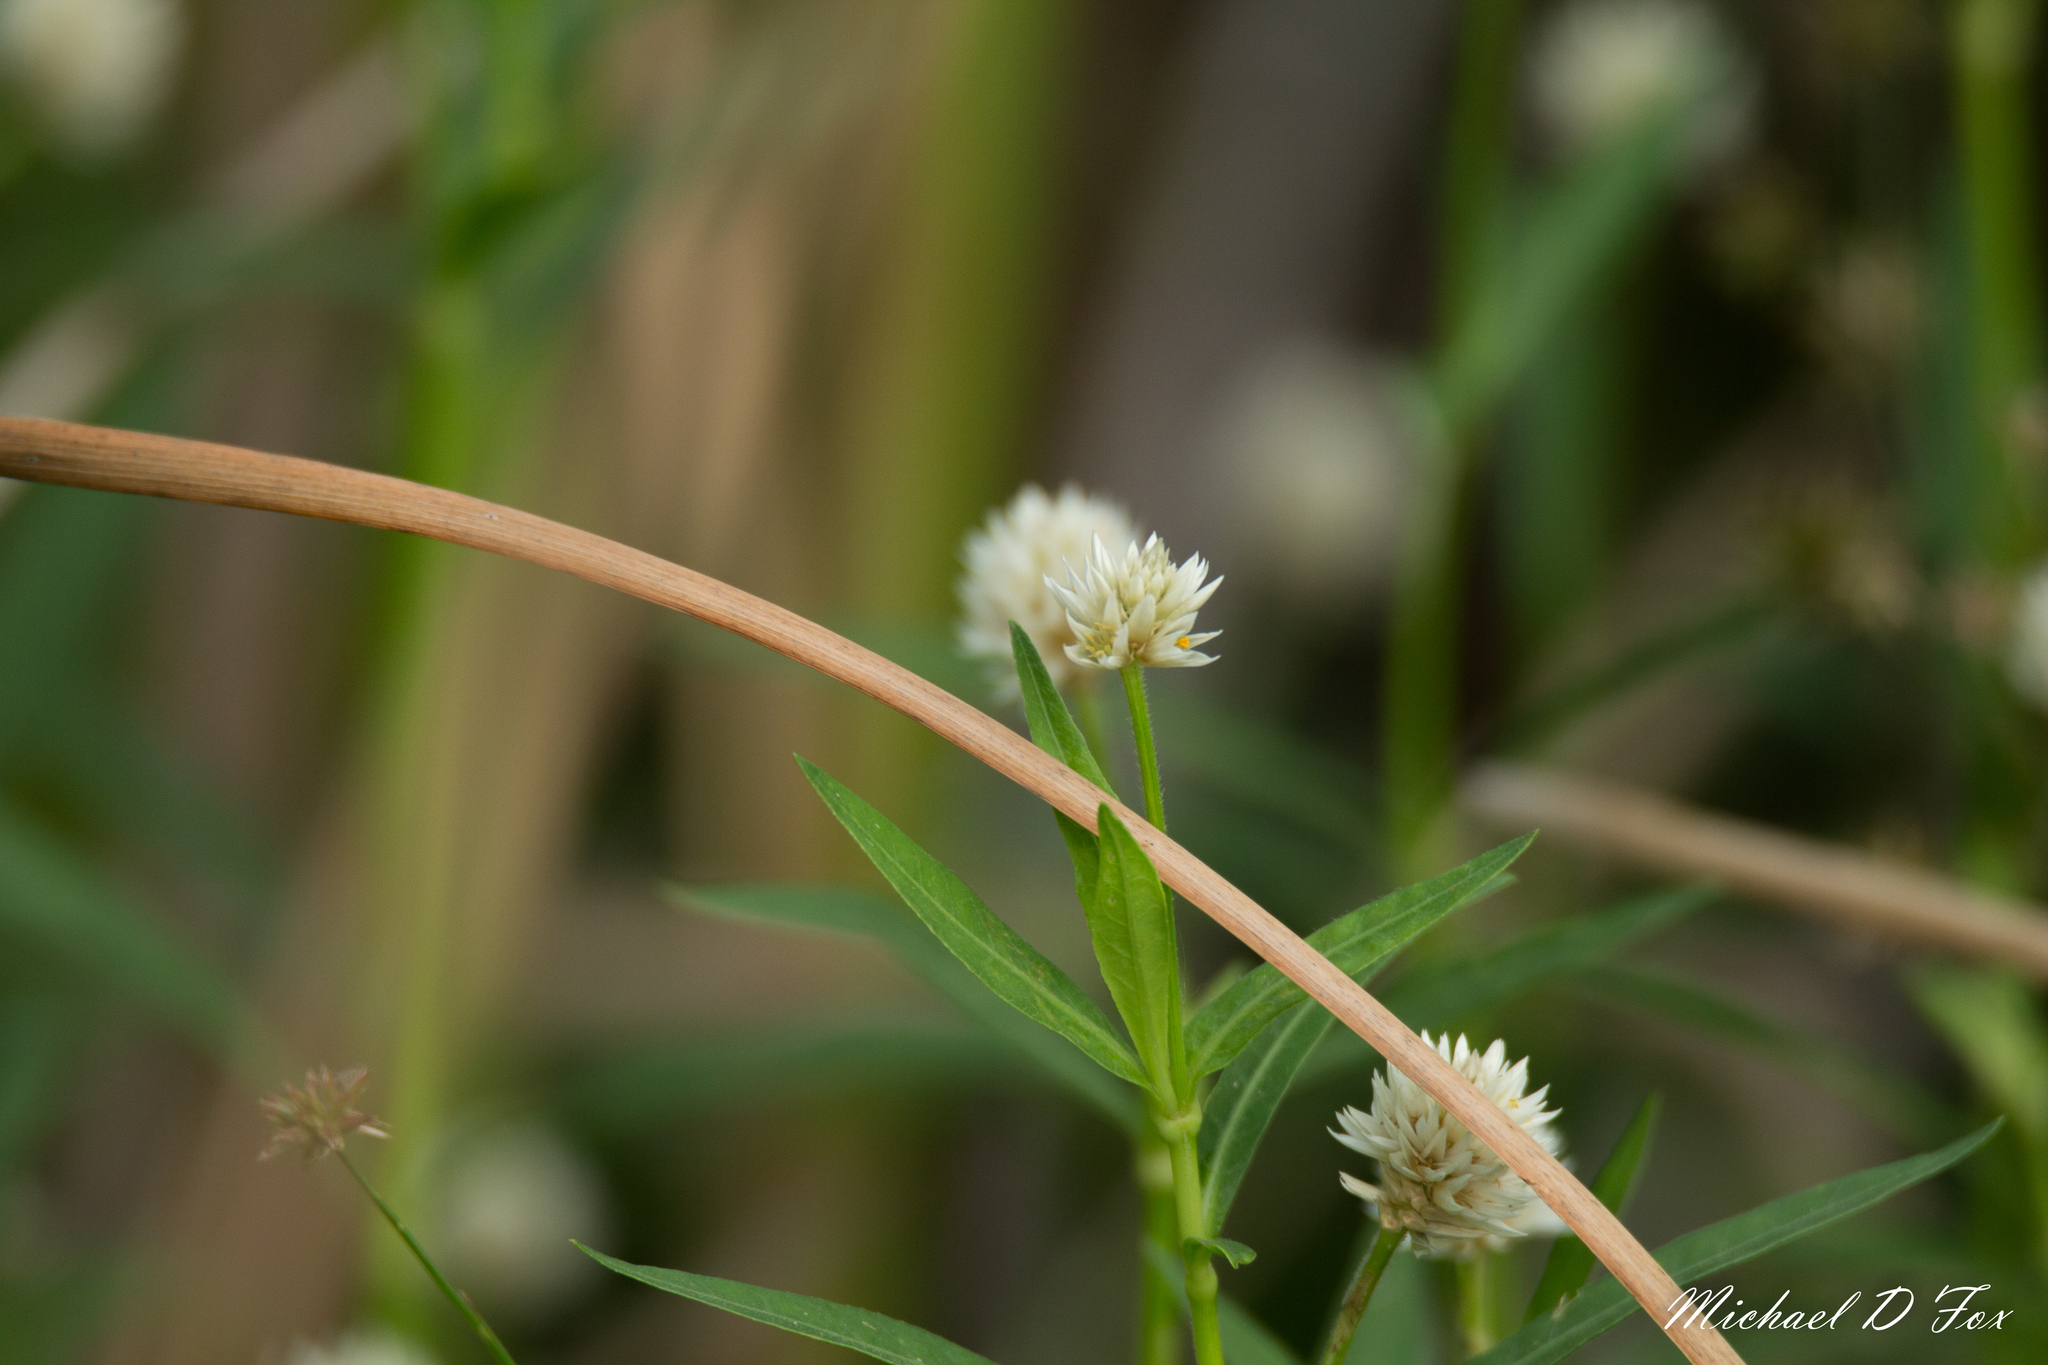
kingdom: Plantae
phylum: Tracheophyta
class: Magnoliopsida
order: Caryophyllales
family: Amaranthaceae
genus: Alternanthera
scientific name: Alternanthera philoxeroides
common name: Alligatorweed
